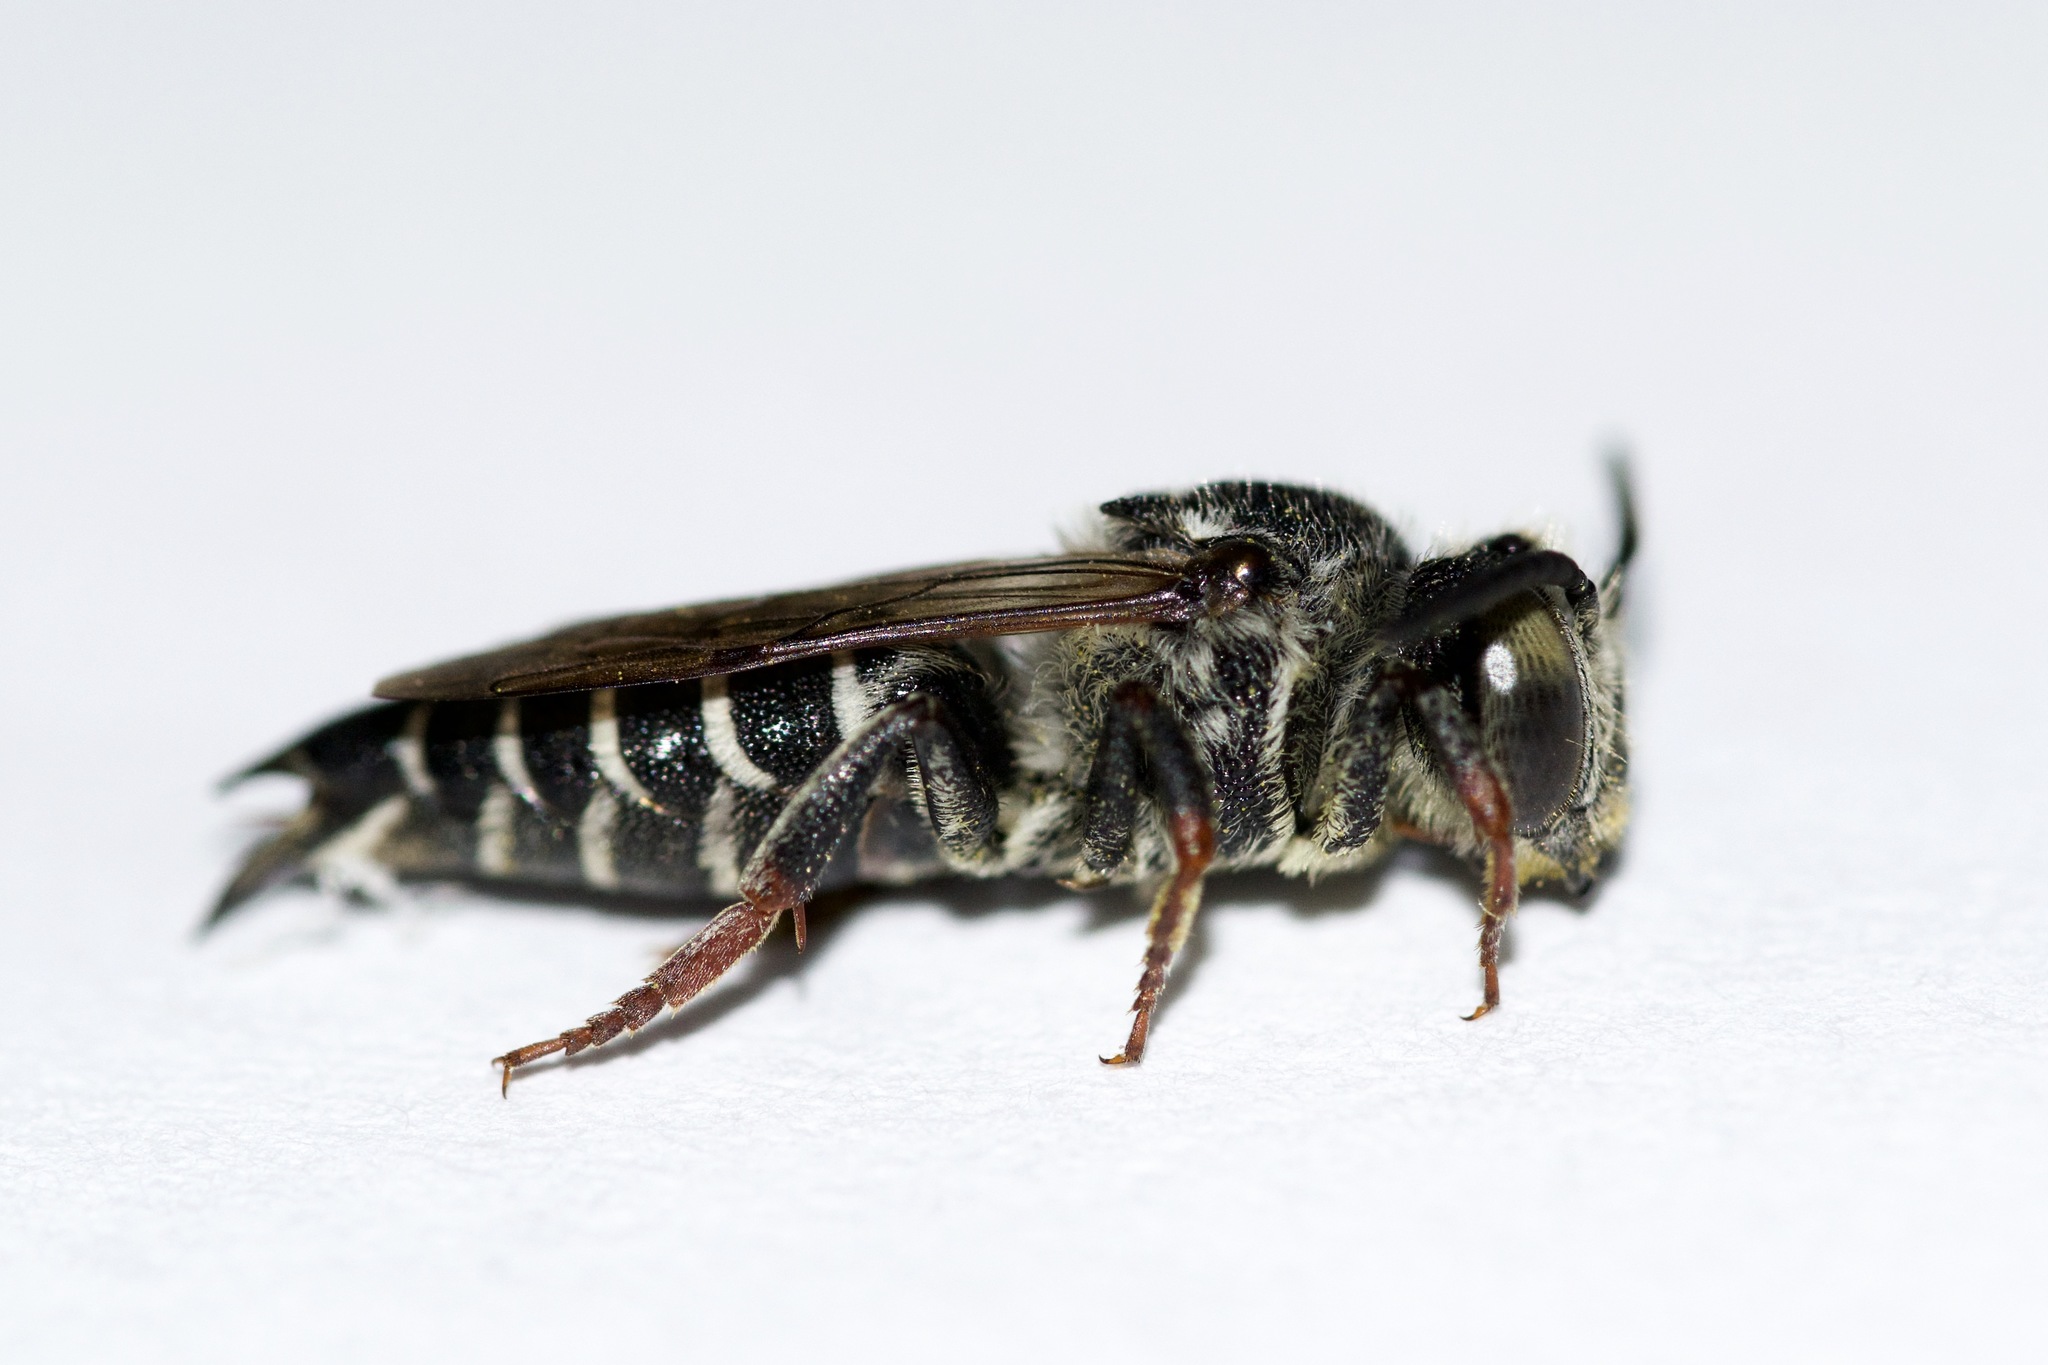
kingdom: Animalia
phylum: Arthropoda
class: Insecta
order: Hymenoptera
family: Megachilidae
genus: Coelioxys
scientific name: Coelioxys rufitarsis
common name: Red-footed sharptail
